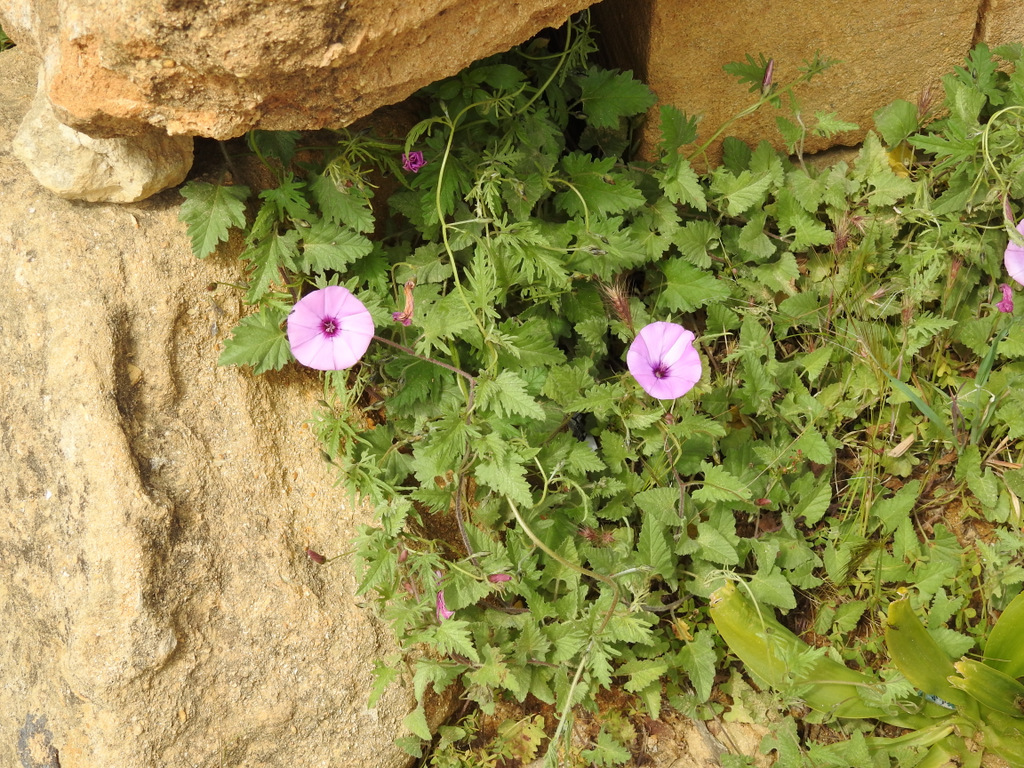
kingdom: Plantae
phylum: Tracheophyta
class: Magnoliopsida
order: Solanales
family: Convolvulaceae
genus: Convolvulus
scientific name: Convolvulus althaeoides
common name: Mallow bindweed
